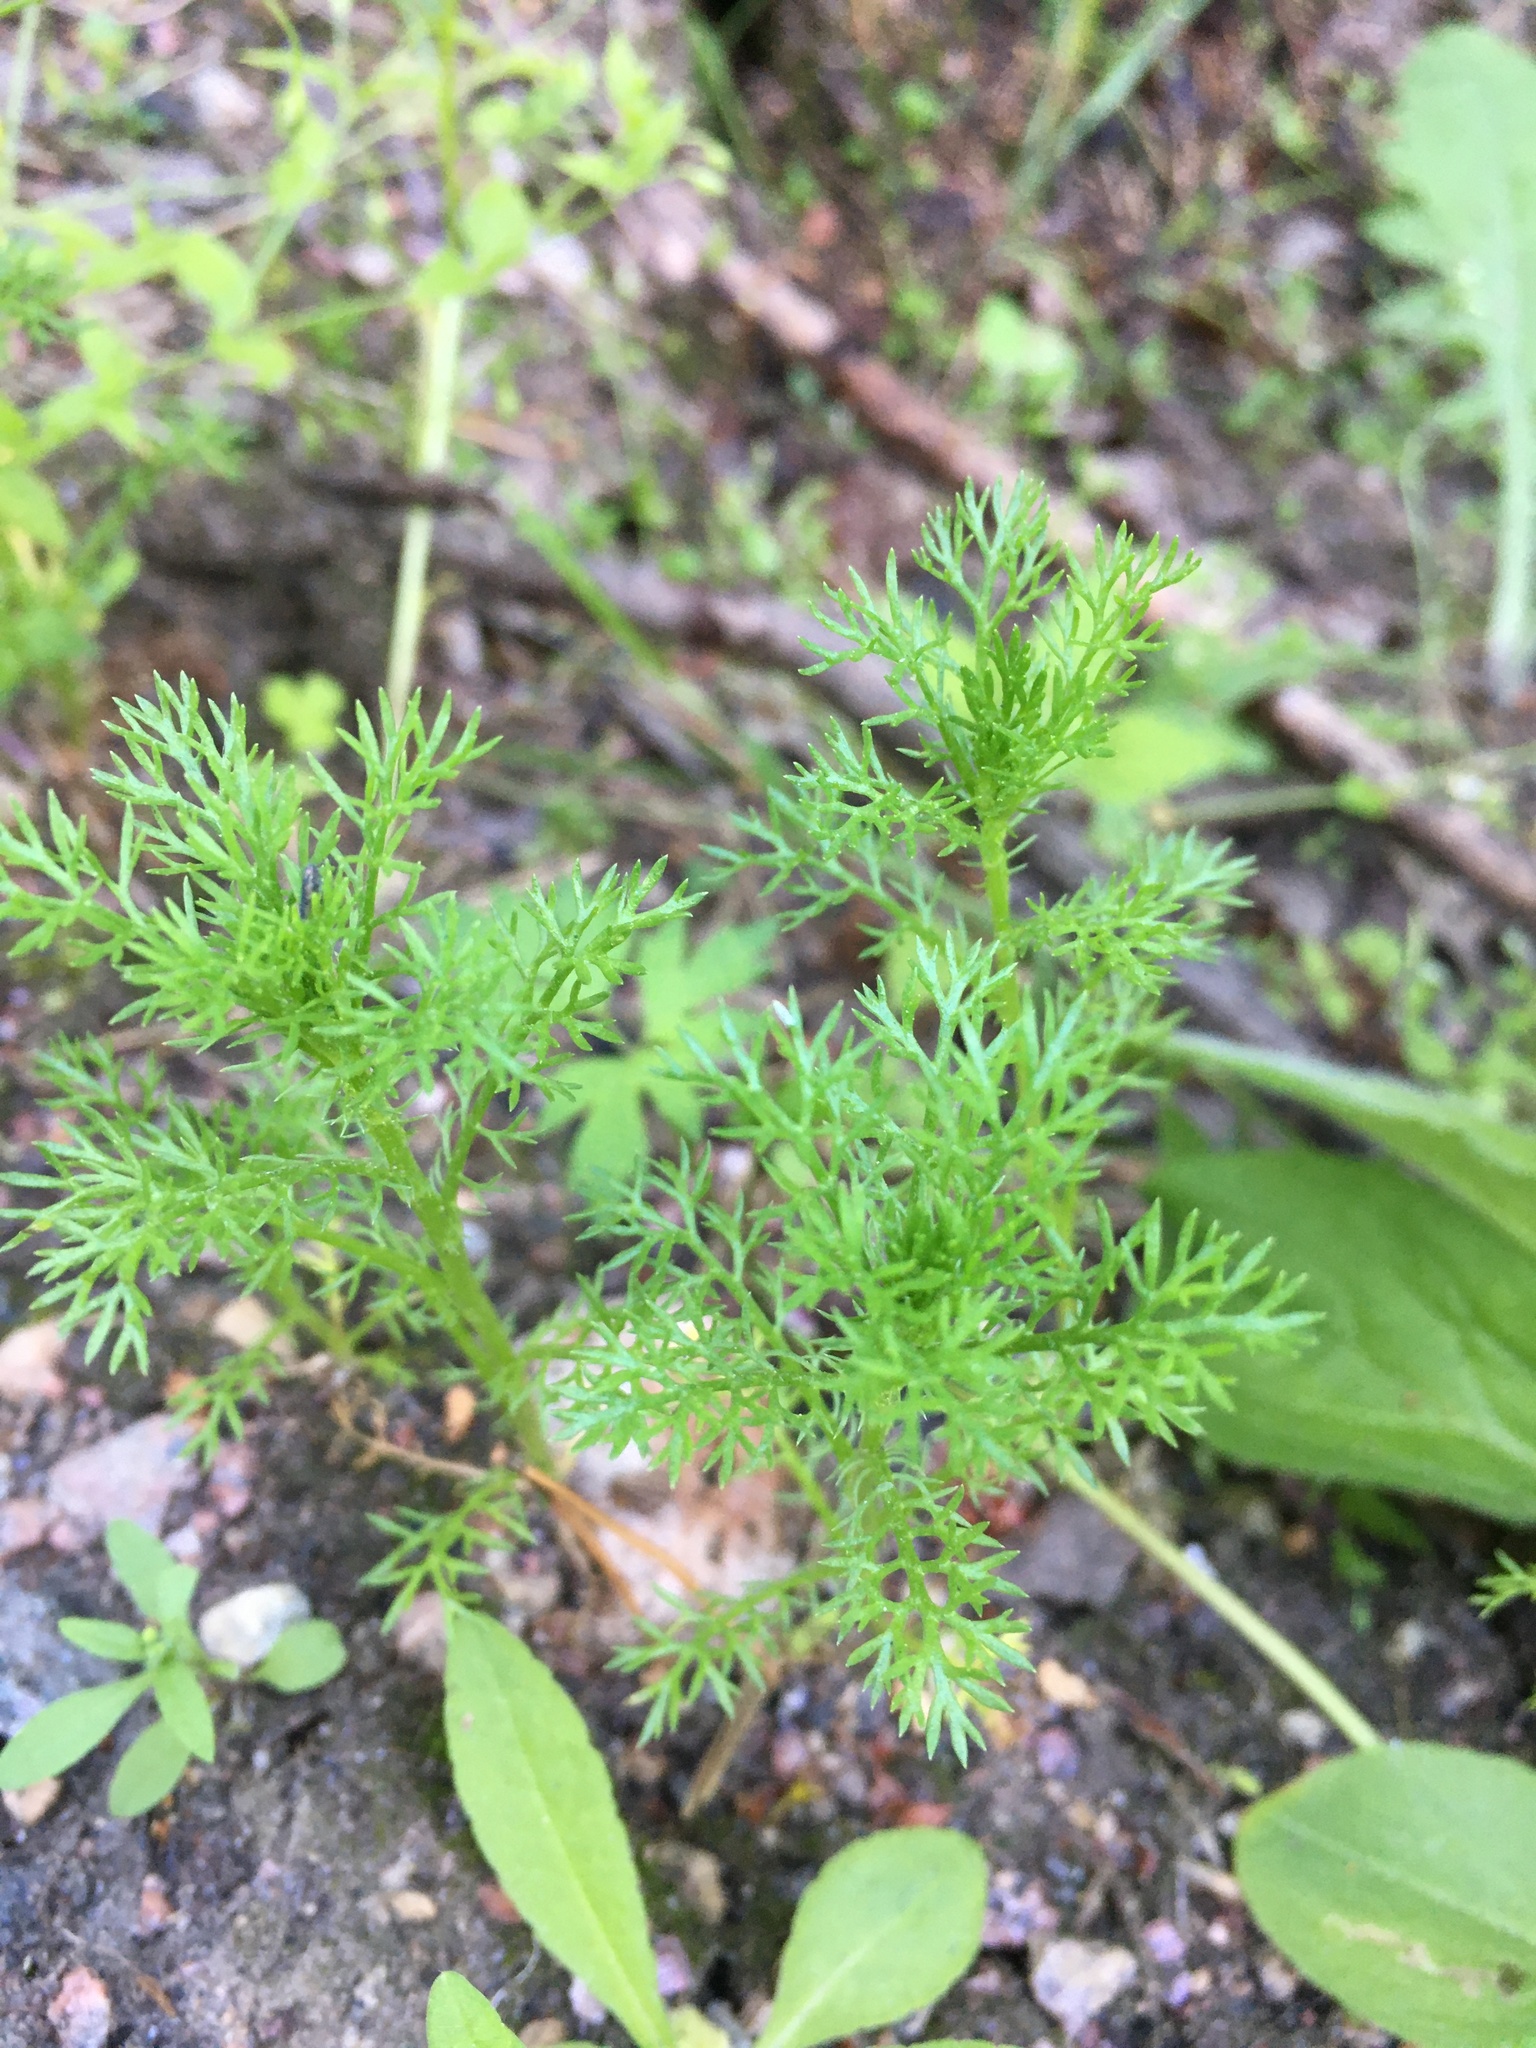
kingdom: Plantae
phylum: Tracheophyta
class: Magnoliopsida
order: Asterales
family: Asteraceae
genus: Matricaria
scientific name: Matricaria discoidea
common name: Disc mayweed
